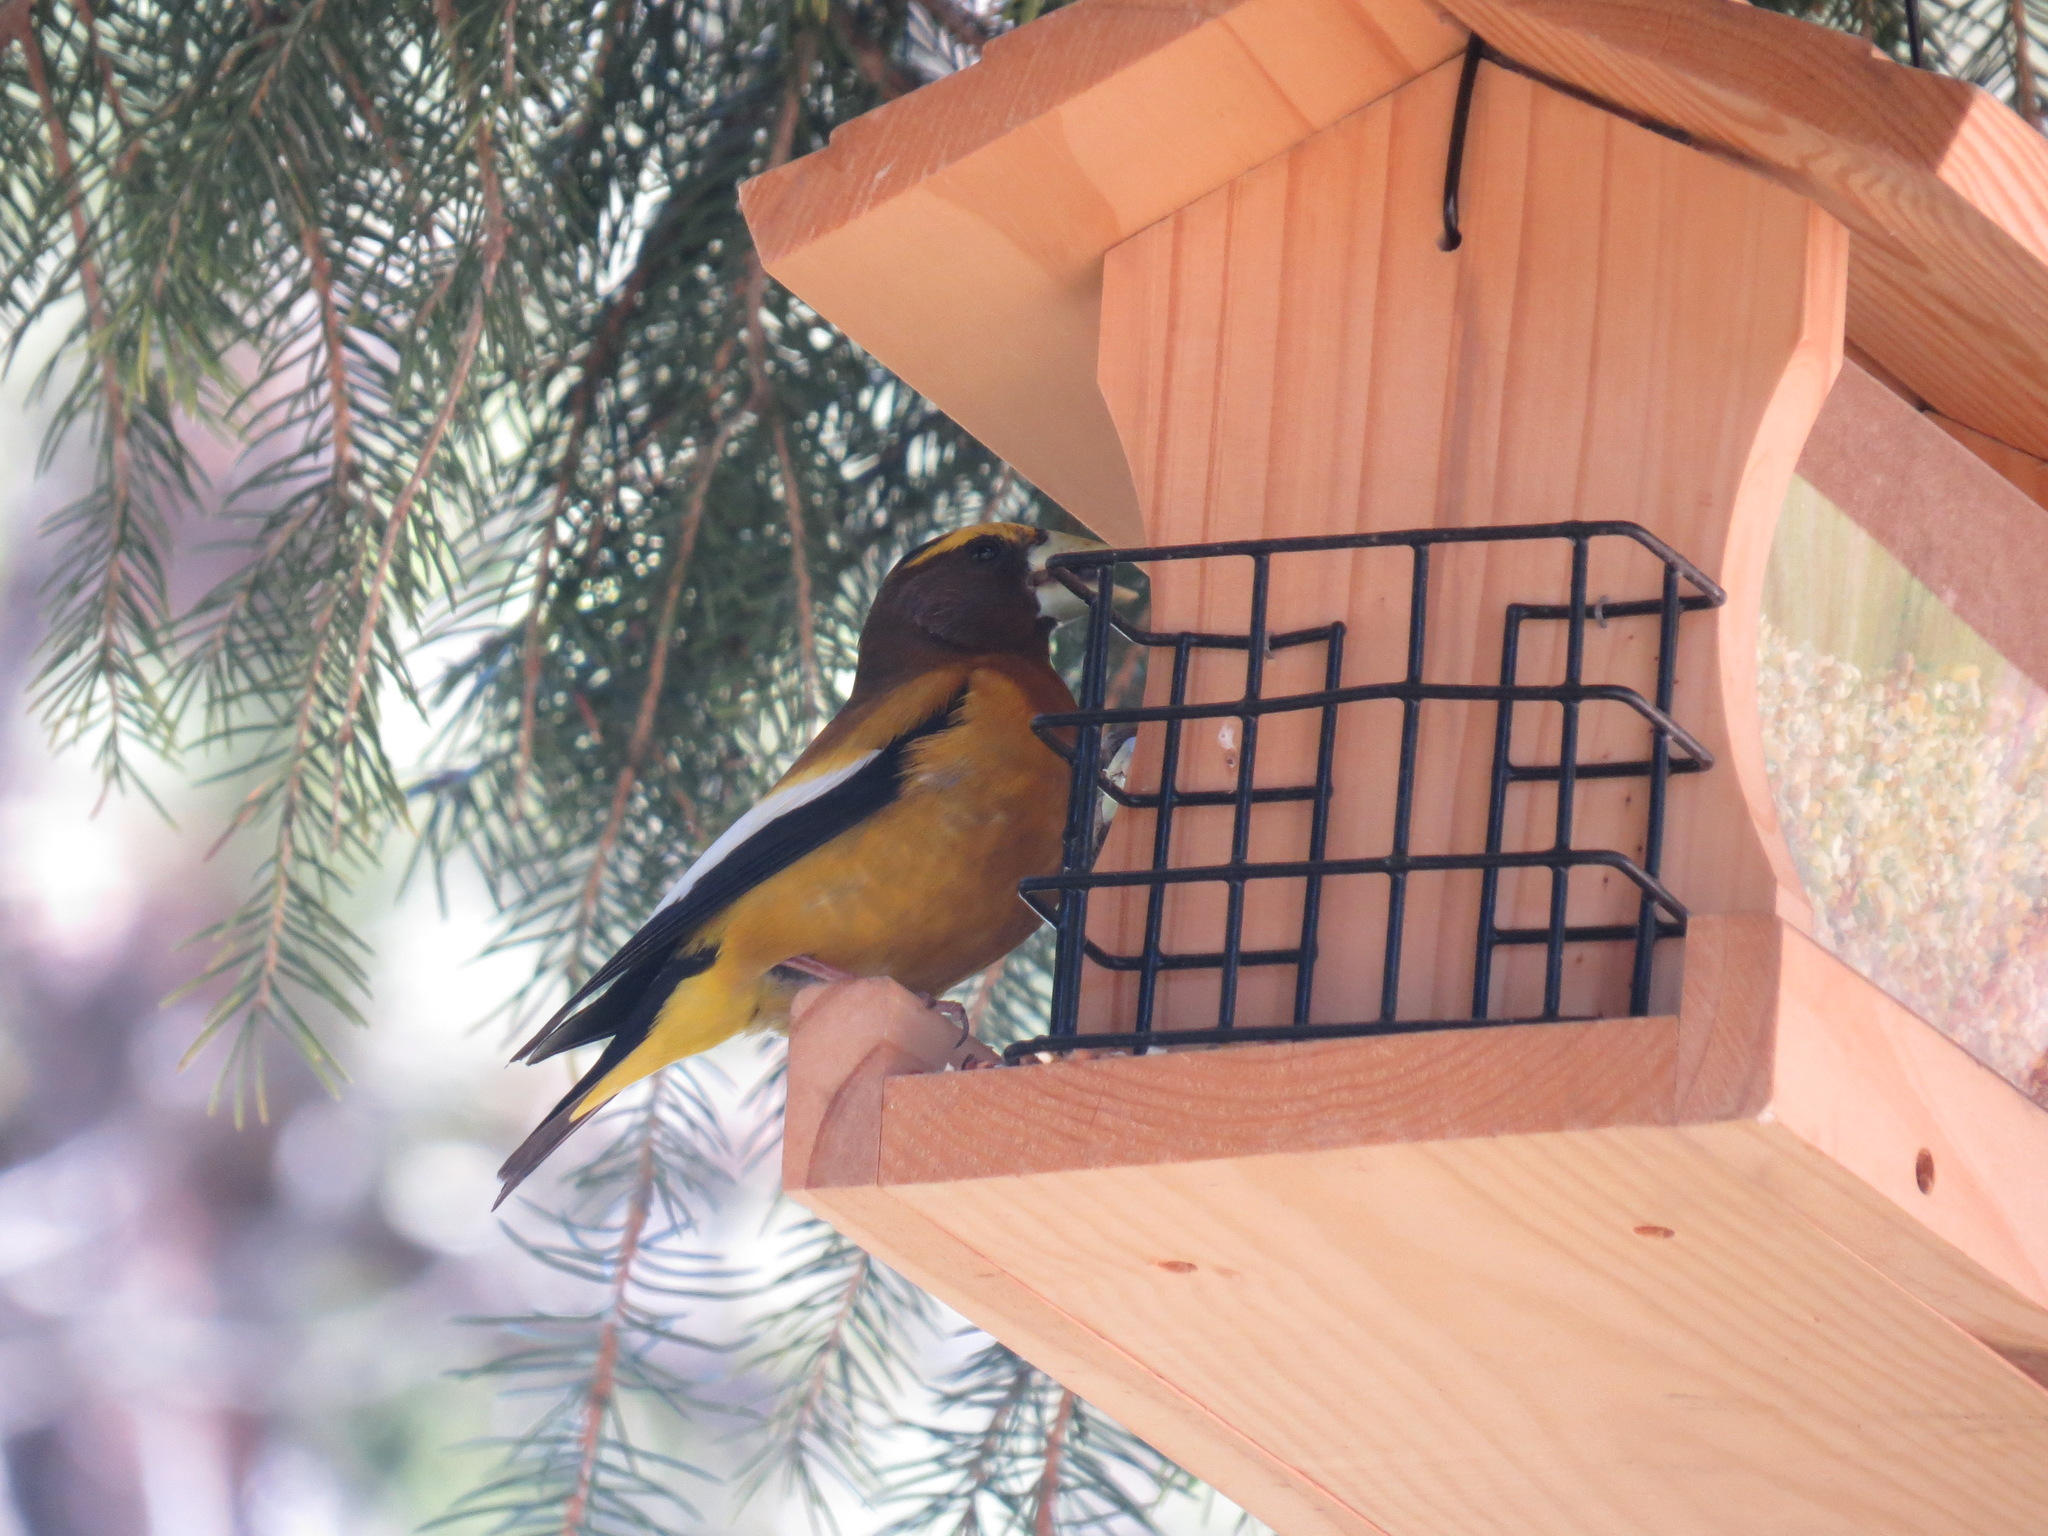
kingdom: Animalia
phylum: Chordata
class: Aves
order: Passeriformes
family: Fringillidae
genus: Hesperiphona
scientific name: Hesperiphona vespertina
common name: Evening grosbeak
